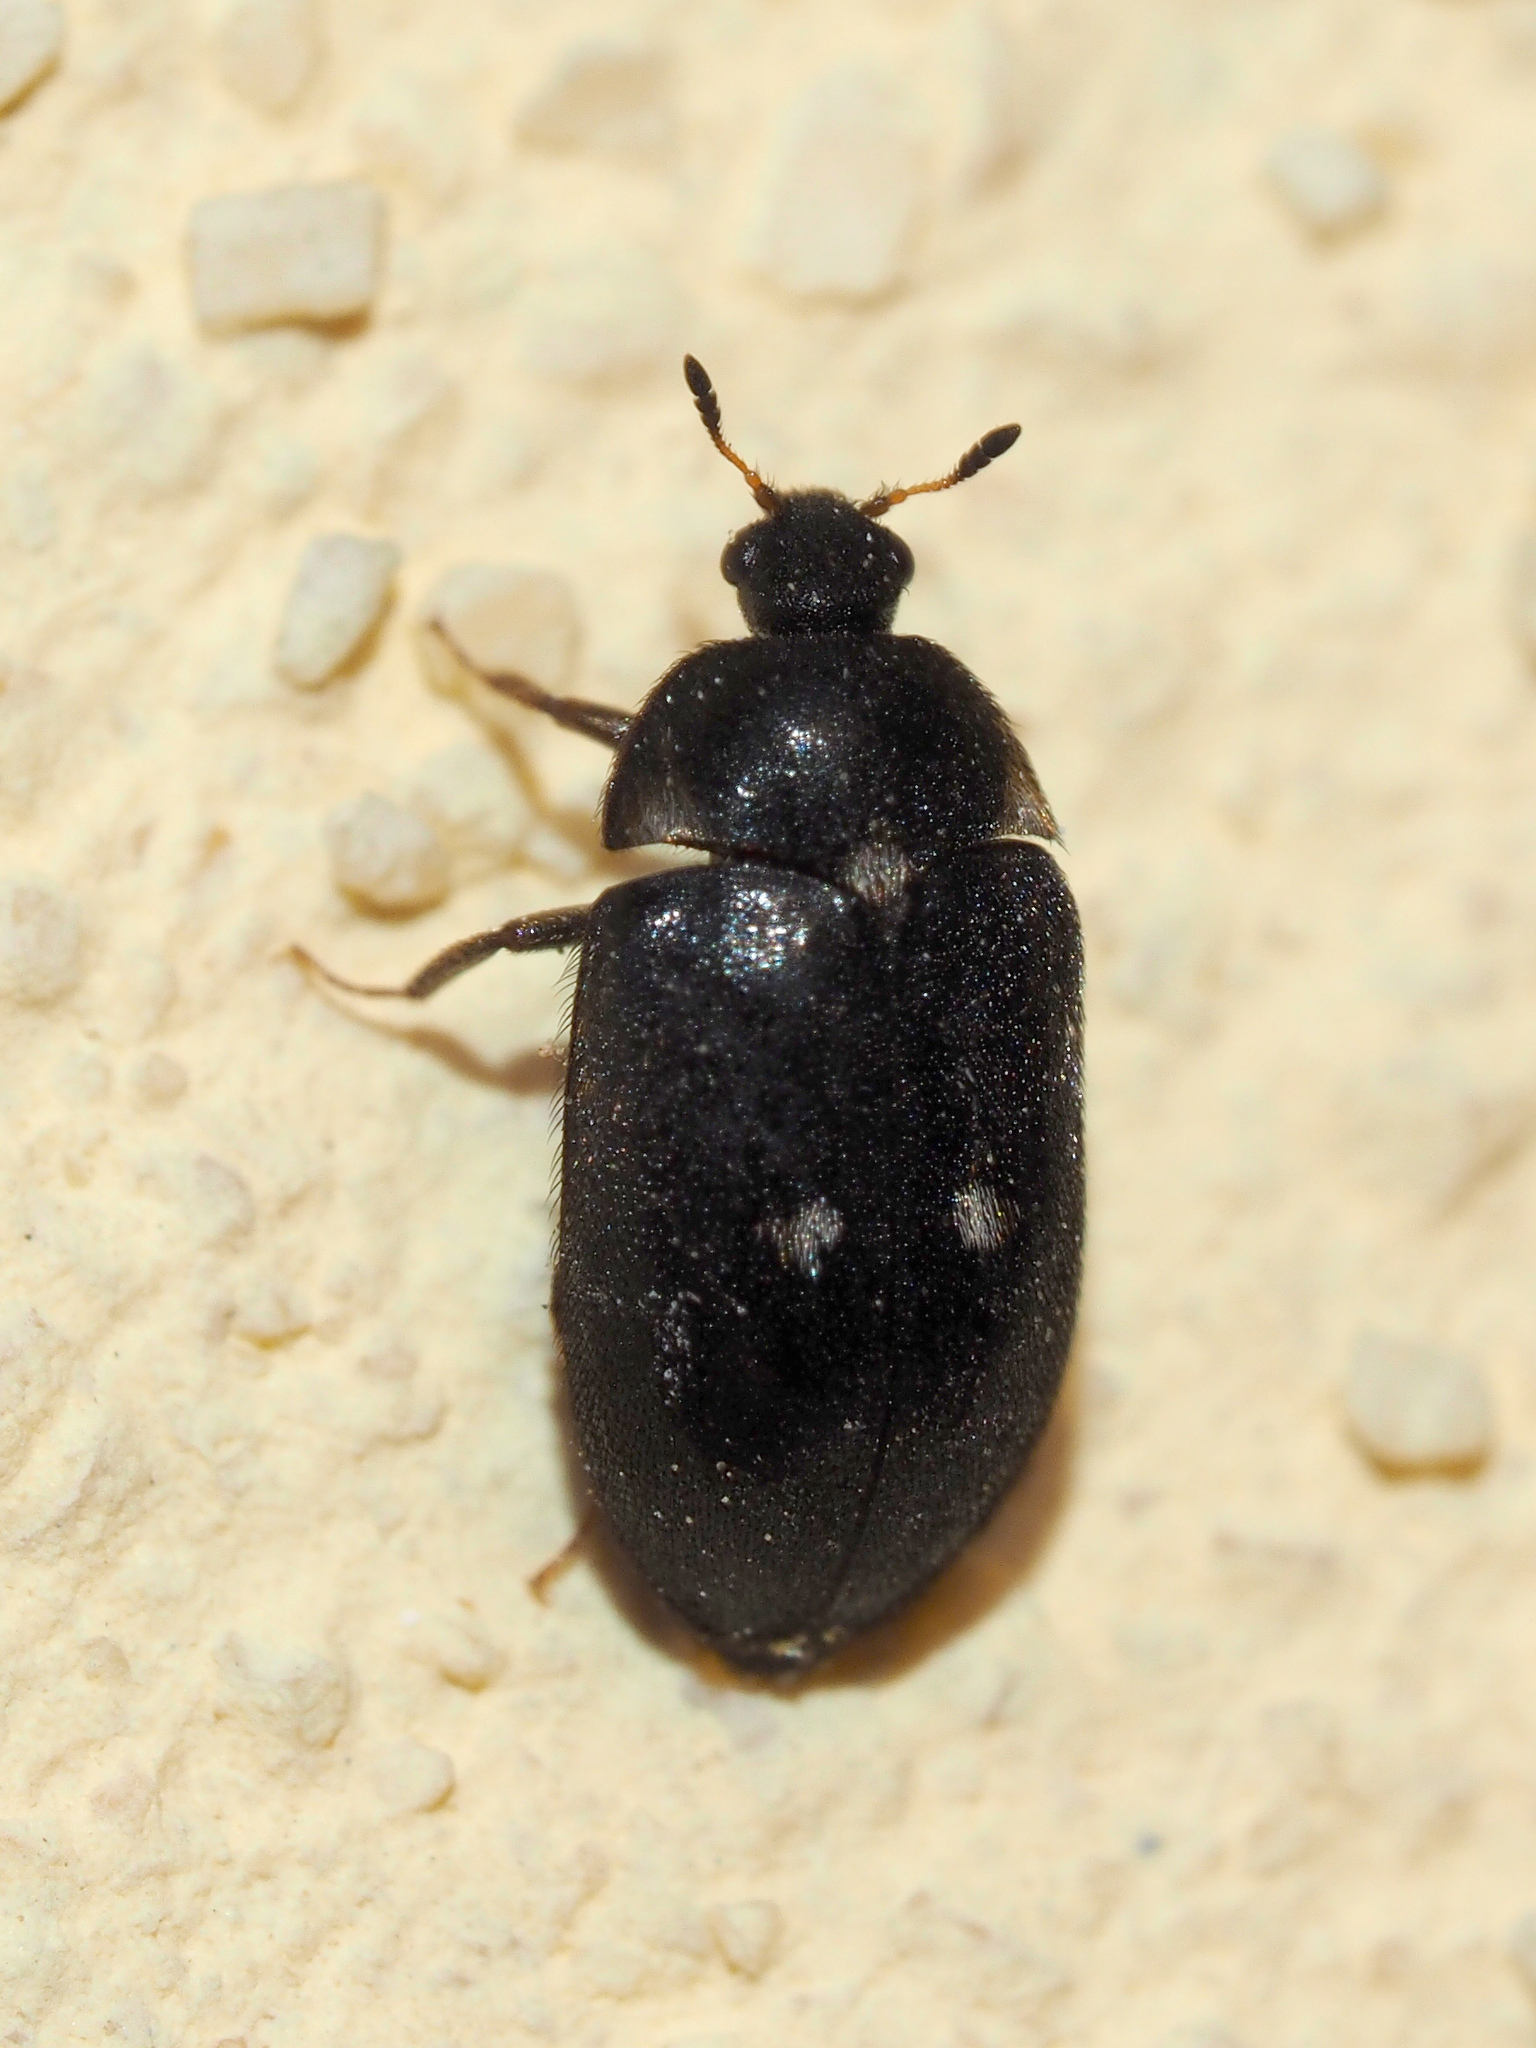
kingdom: Animalia
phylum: Arthropoda
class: Insecta
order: Coleoptera
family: Dermestidae
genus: Attagenus
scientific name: Attagenus pellio
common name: Two-spotted carpet beetle
